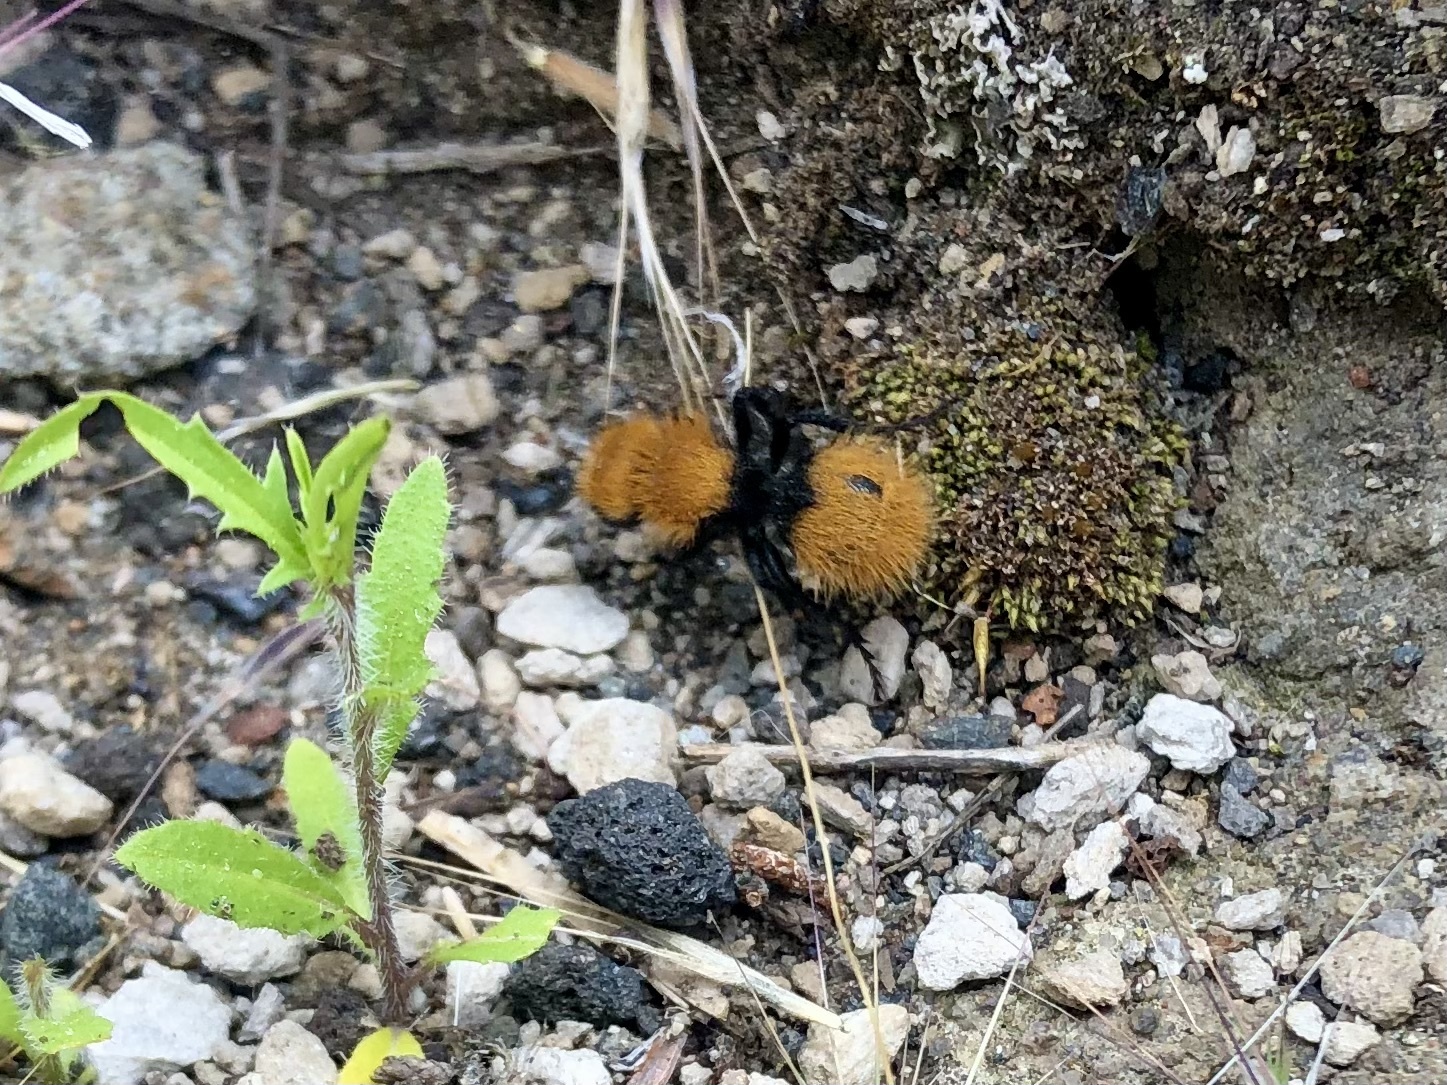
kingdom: Animalia
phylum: Arthropoda
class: Insecta
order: Hymenoptera
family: Mutillidae
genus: Dasymutilla
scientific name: Dasymutilla
